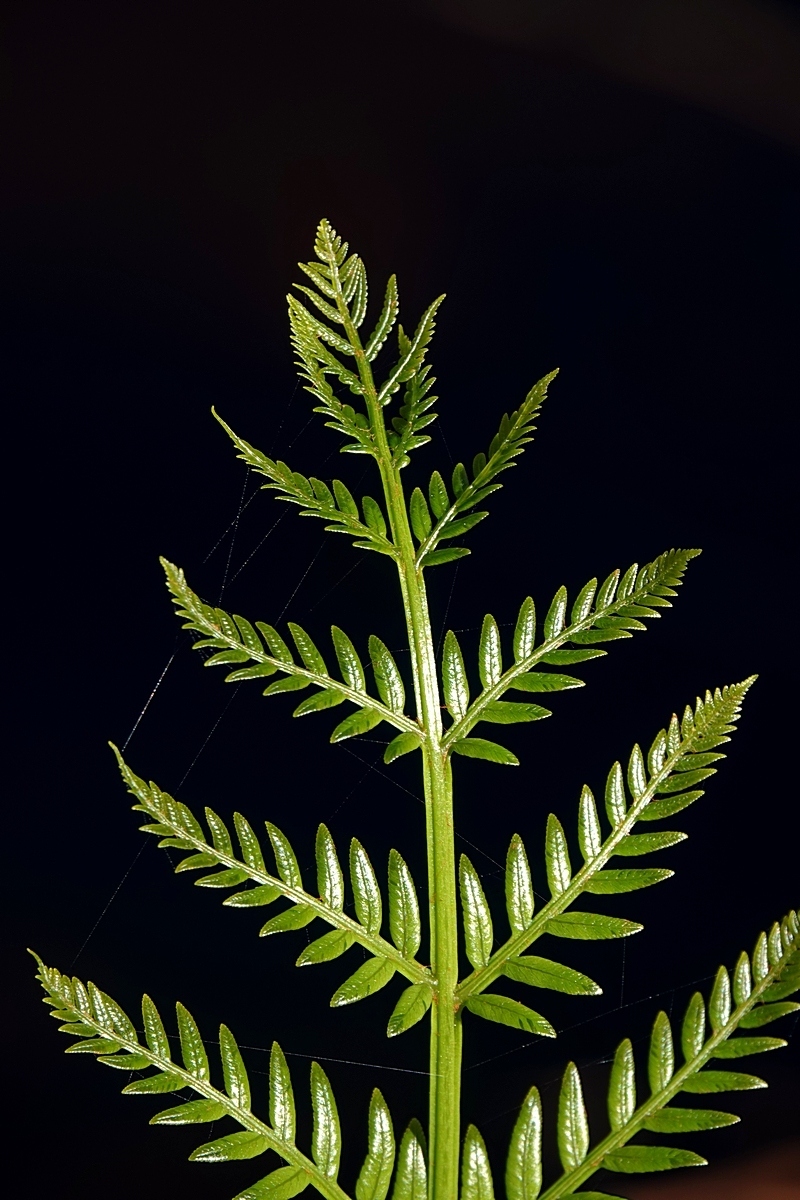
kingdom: Plantae
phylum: Tracheophyta
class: Polypodiopsida
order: Osmundales
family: Osmundaceae
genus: Todea
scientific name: Todea barbara
